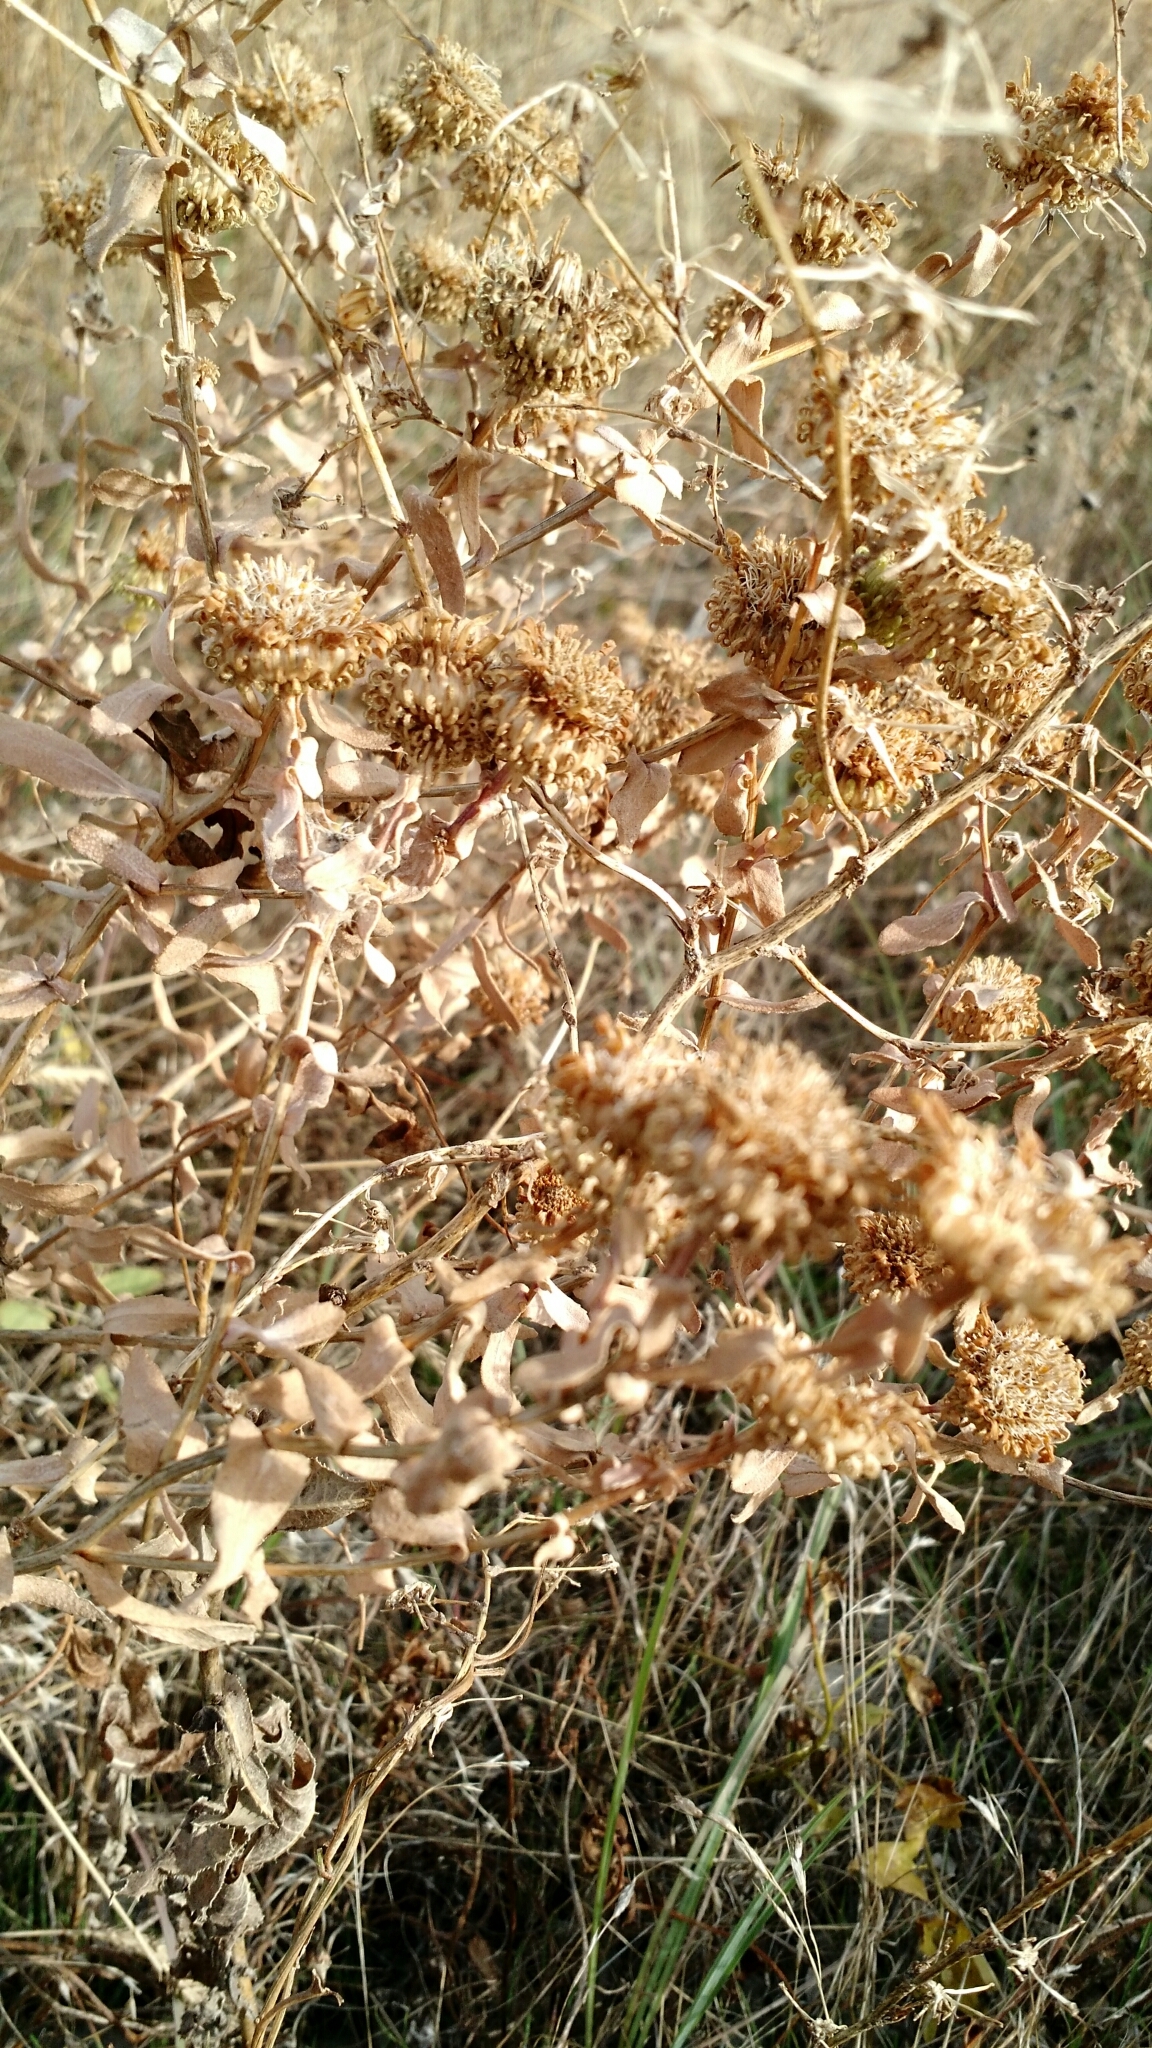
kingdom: Plantae
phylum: Tracheophyta
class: Magnoliopsida
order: Asterales
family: Asteraceae
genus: Grindelia
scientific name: Grindelia squarrosa
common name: Curly-cup gumweed
